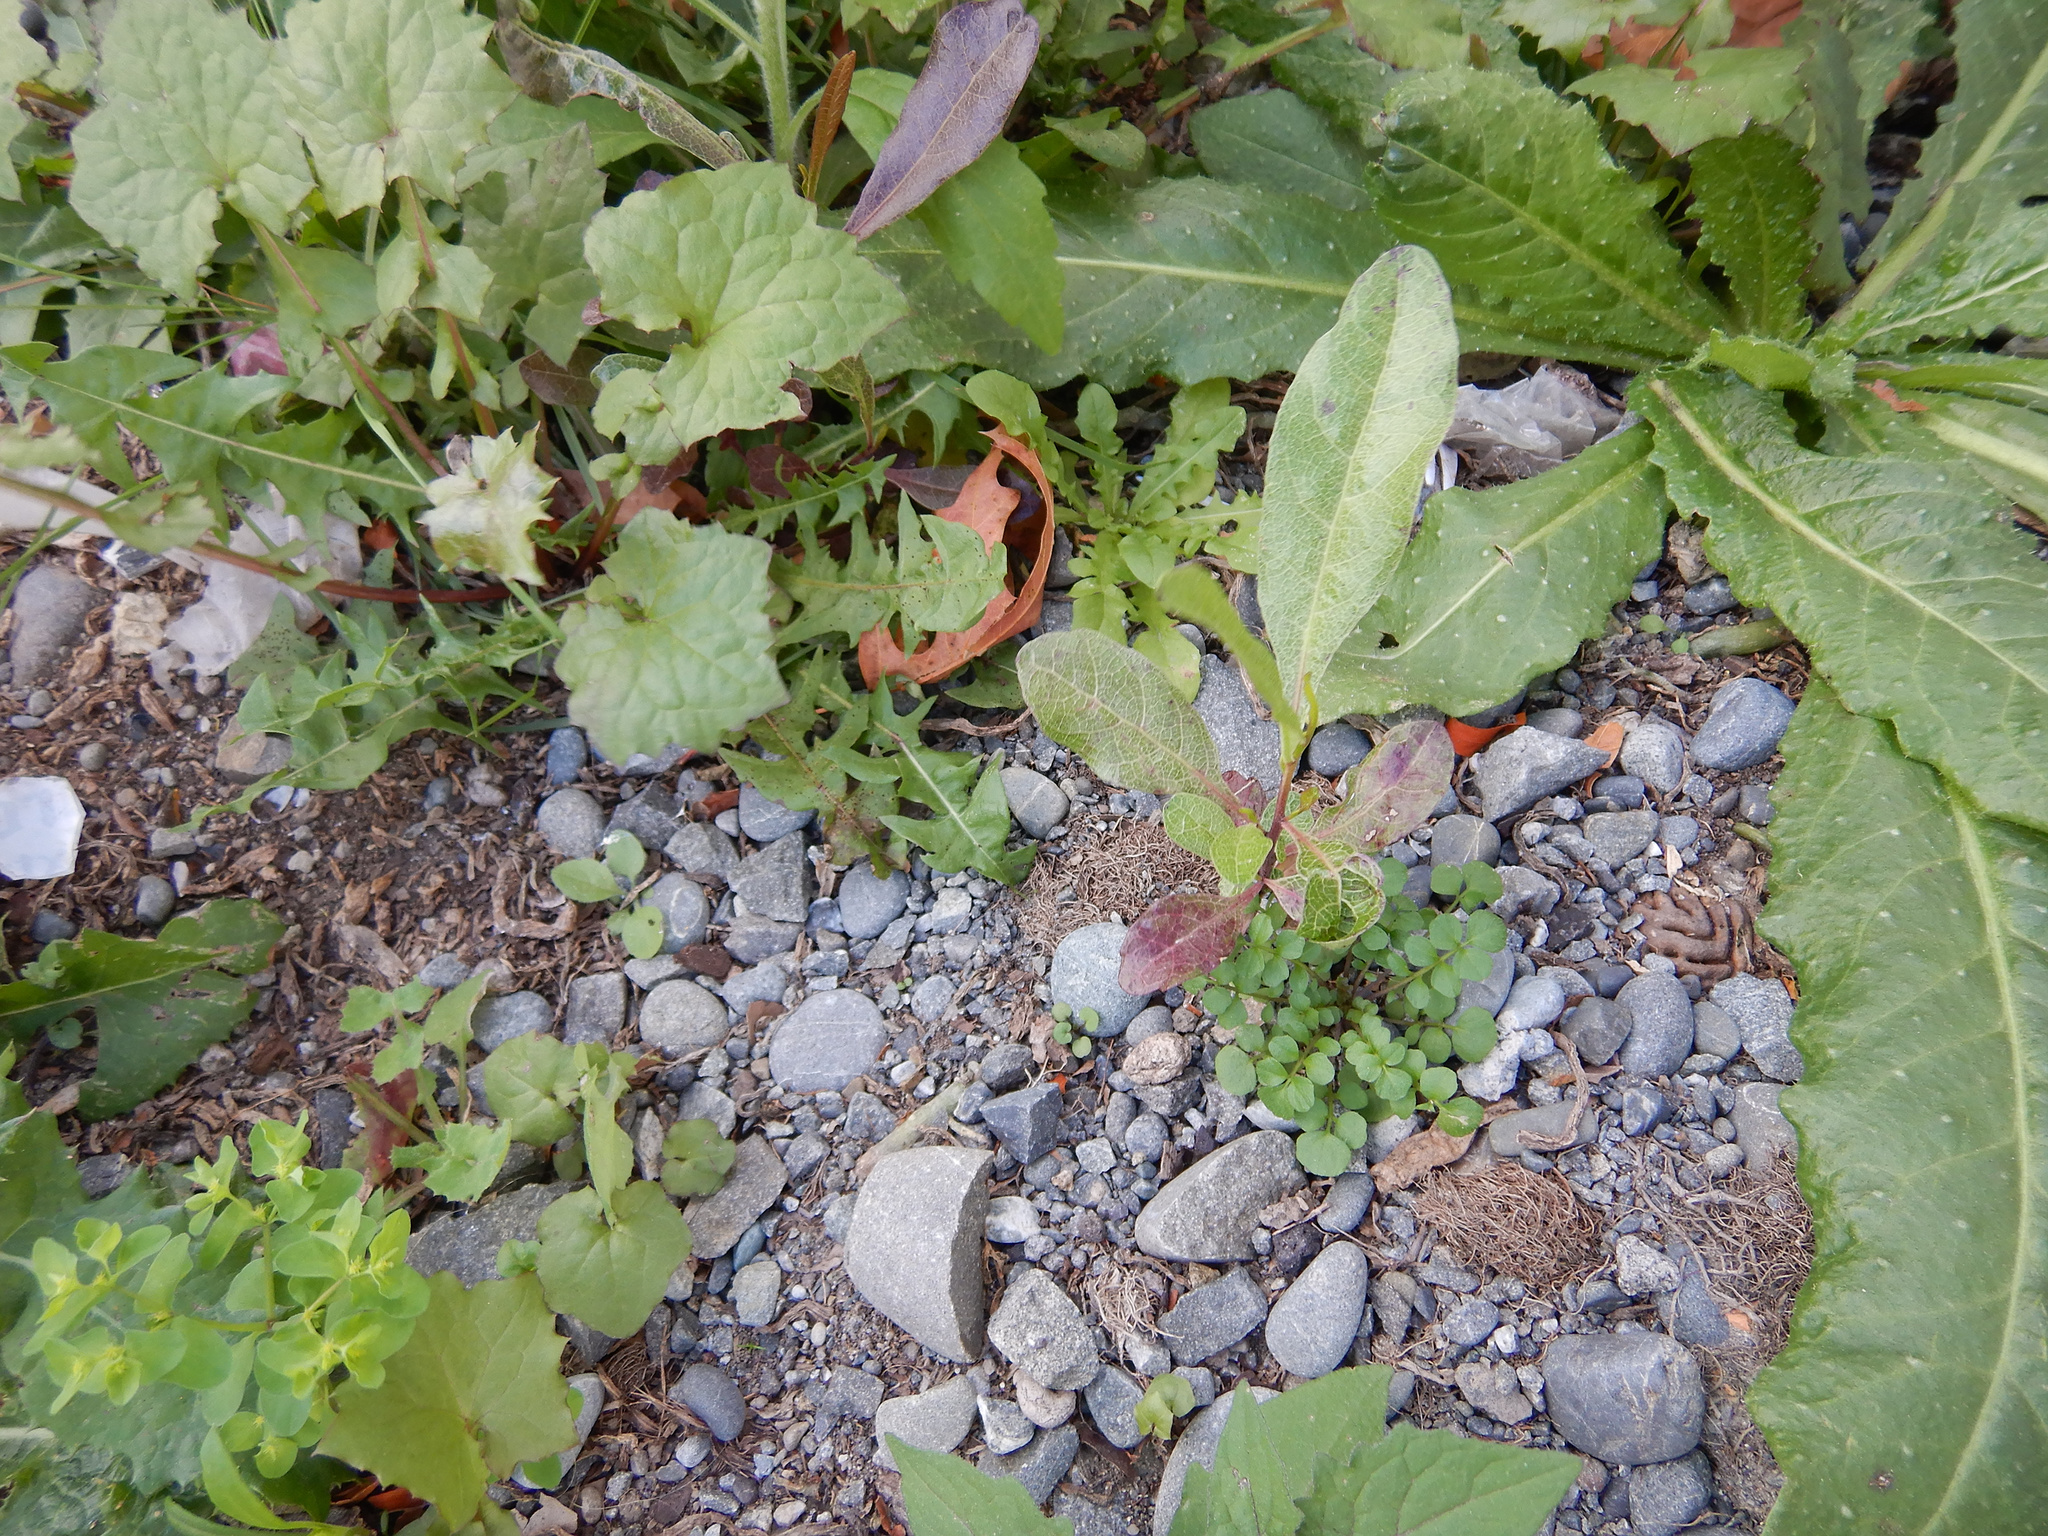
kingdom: Plantae
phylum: Tracheophyta
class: Magnoliopsida
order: Sapindales
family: Sapindaceae
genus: Dodonaea
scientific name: Dodonaea viscosa
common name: Hopbush
